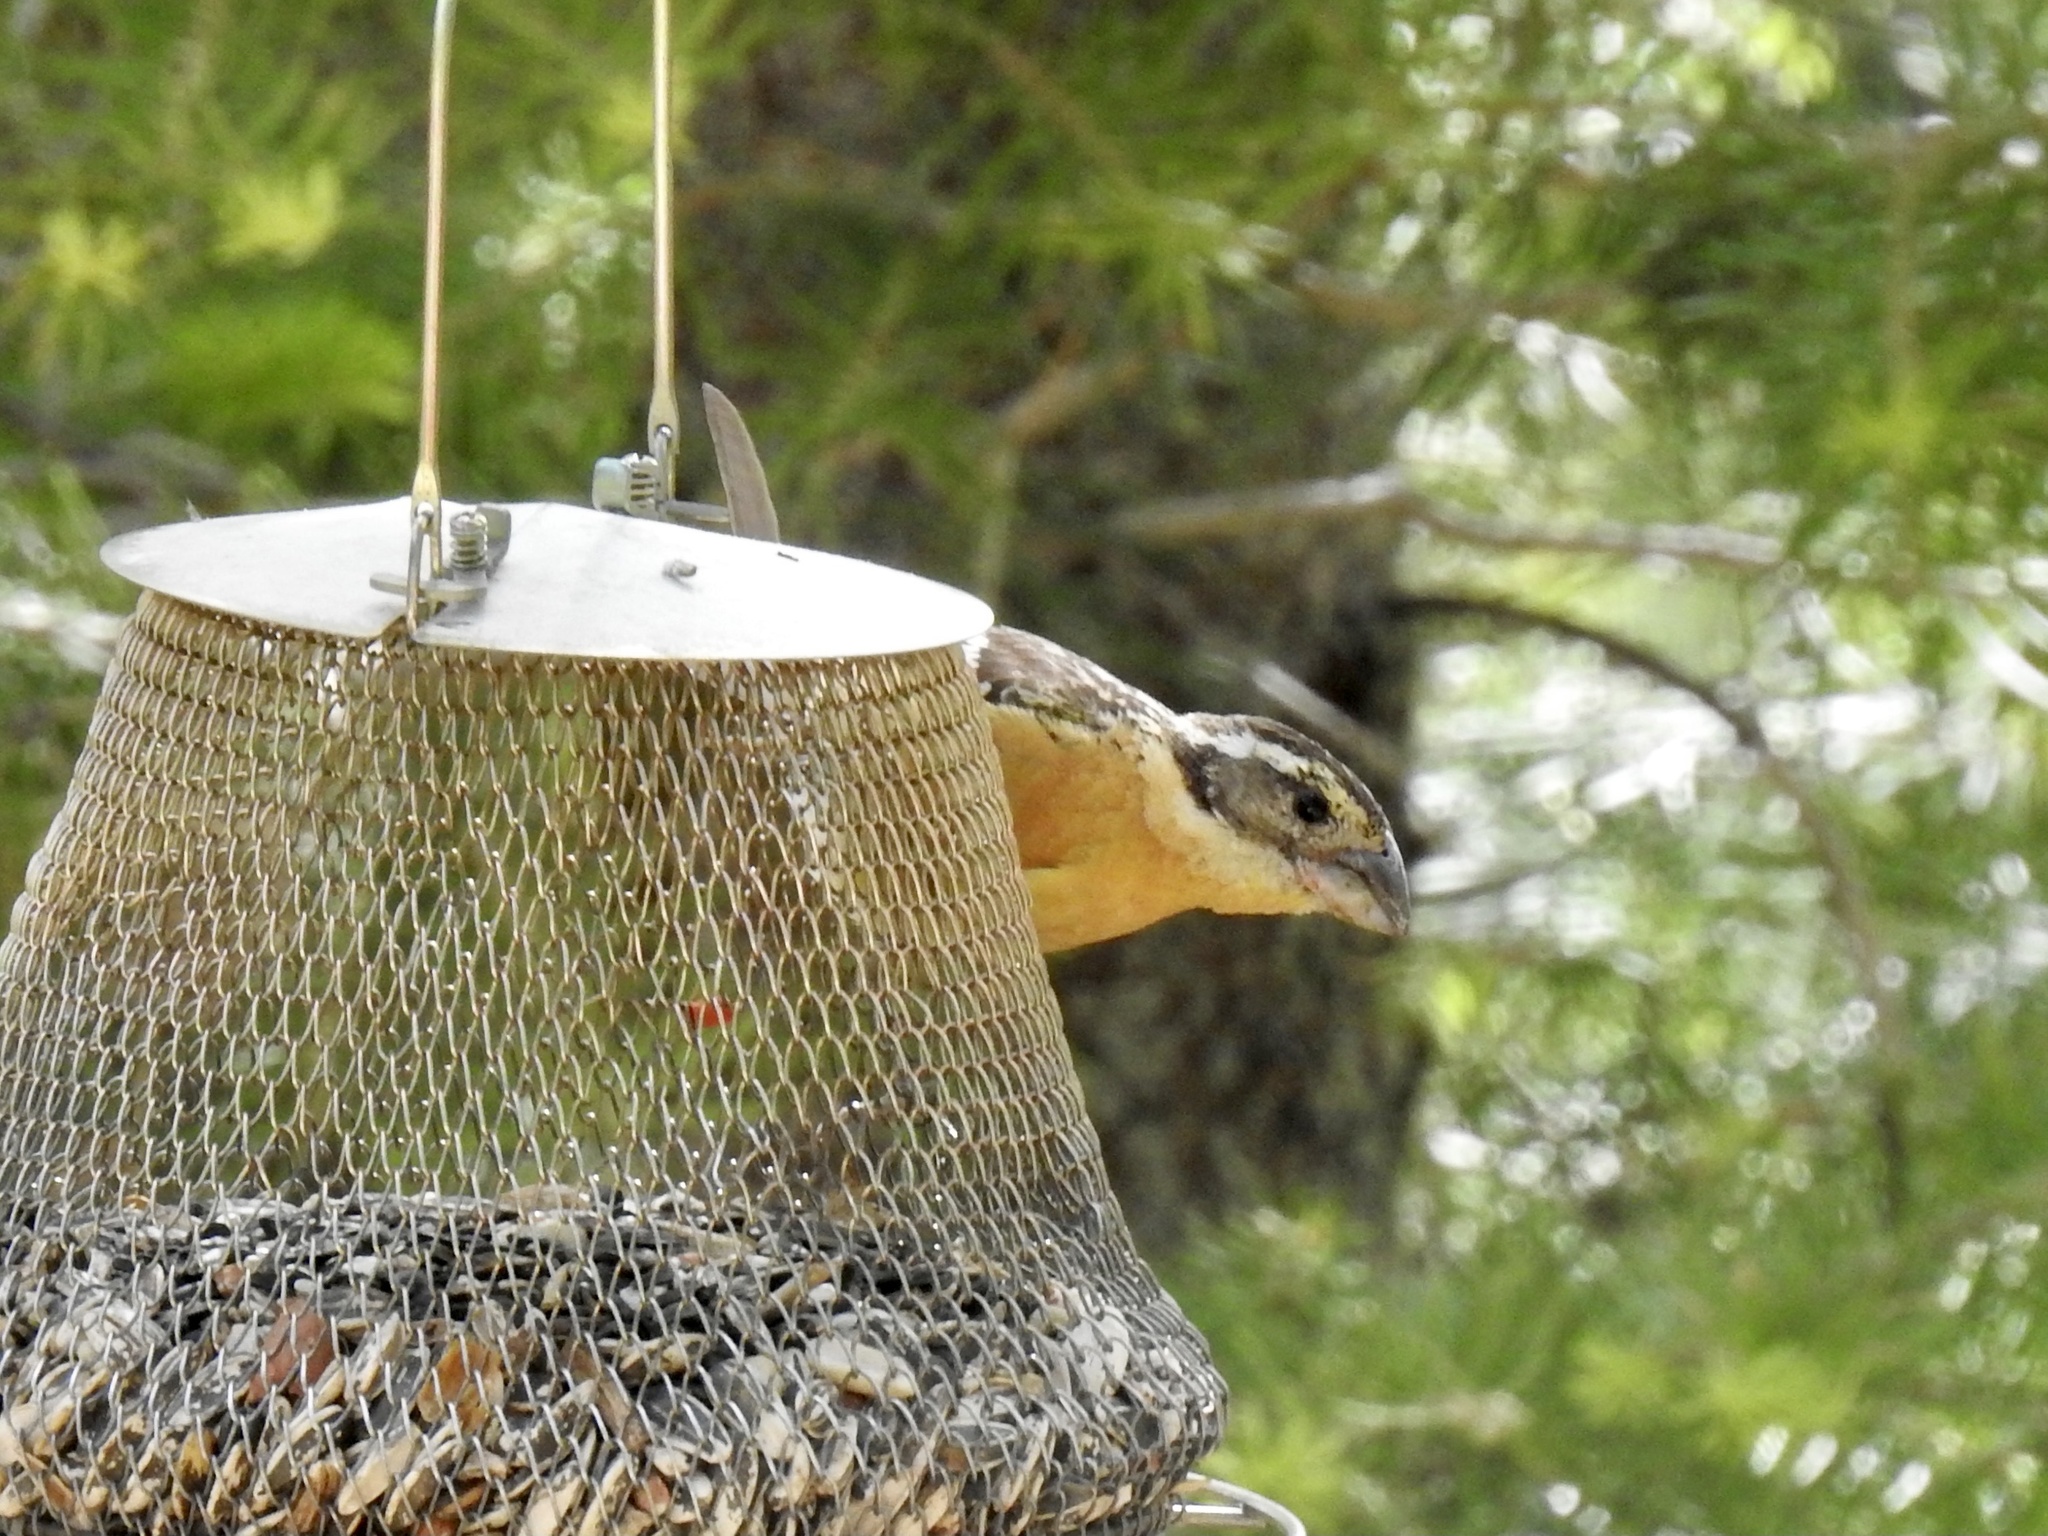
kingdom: Animalia
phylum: Chordata
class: Aves
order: Passeriformes
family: Cardinalidae
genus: Pheucticus
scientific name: Pheucticus melanocephalus
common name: Black-headed grosbeak
